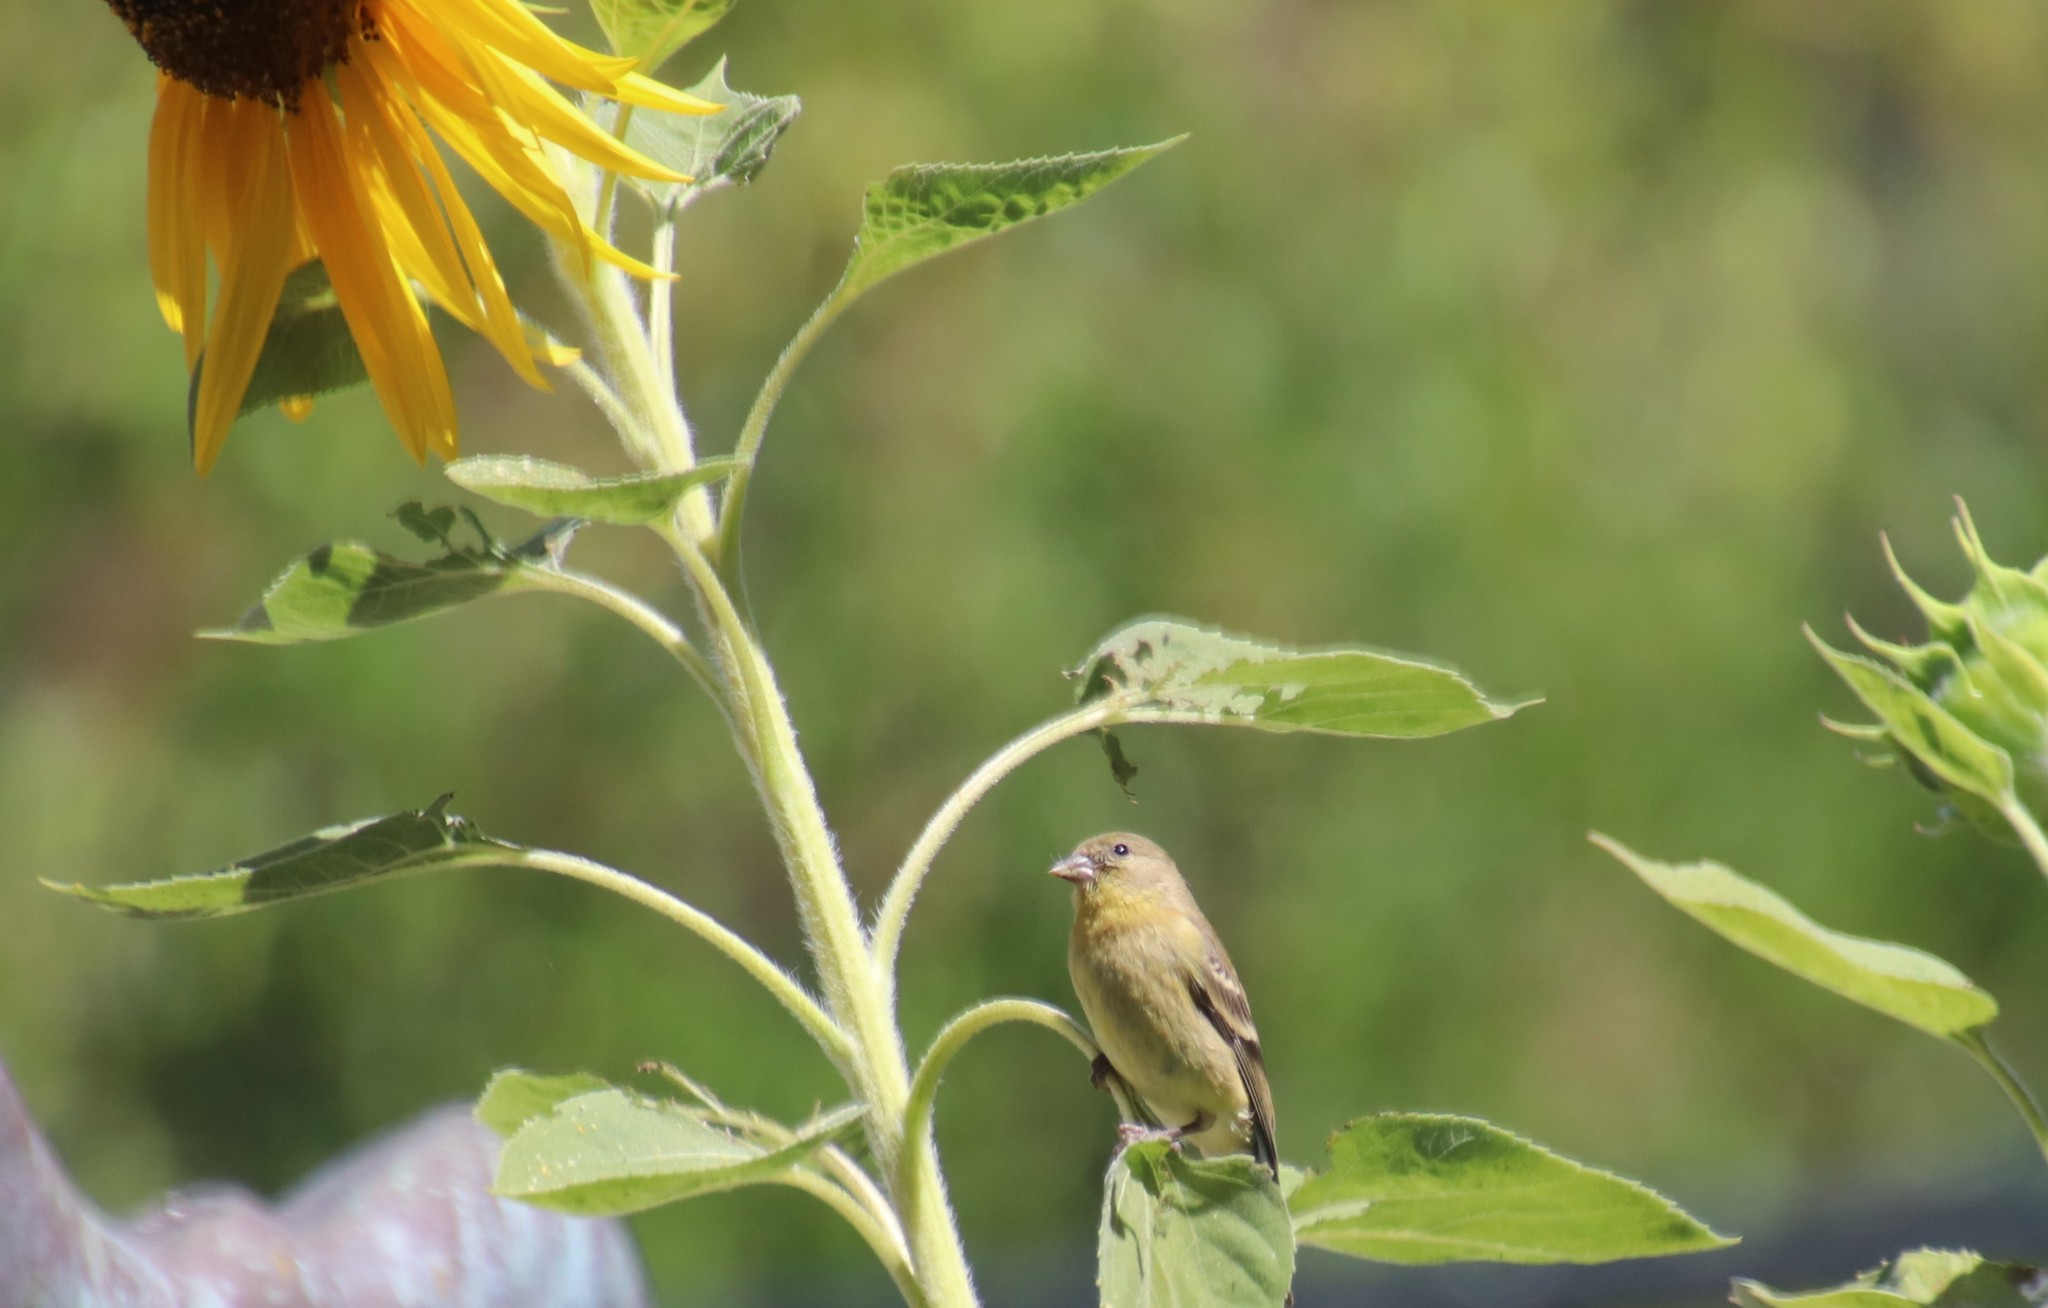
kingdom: Animalia
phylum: Chordata
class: Aves
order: Passeriformes
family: Fringillidae
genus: Spinus
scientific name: Spinus psaltria
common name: Lesser goldfinch
